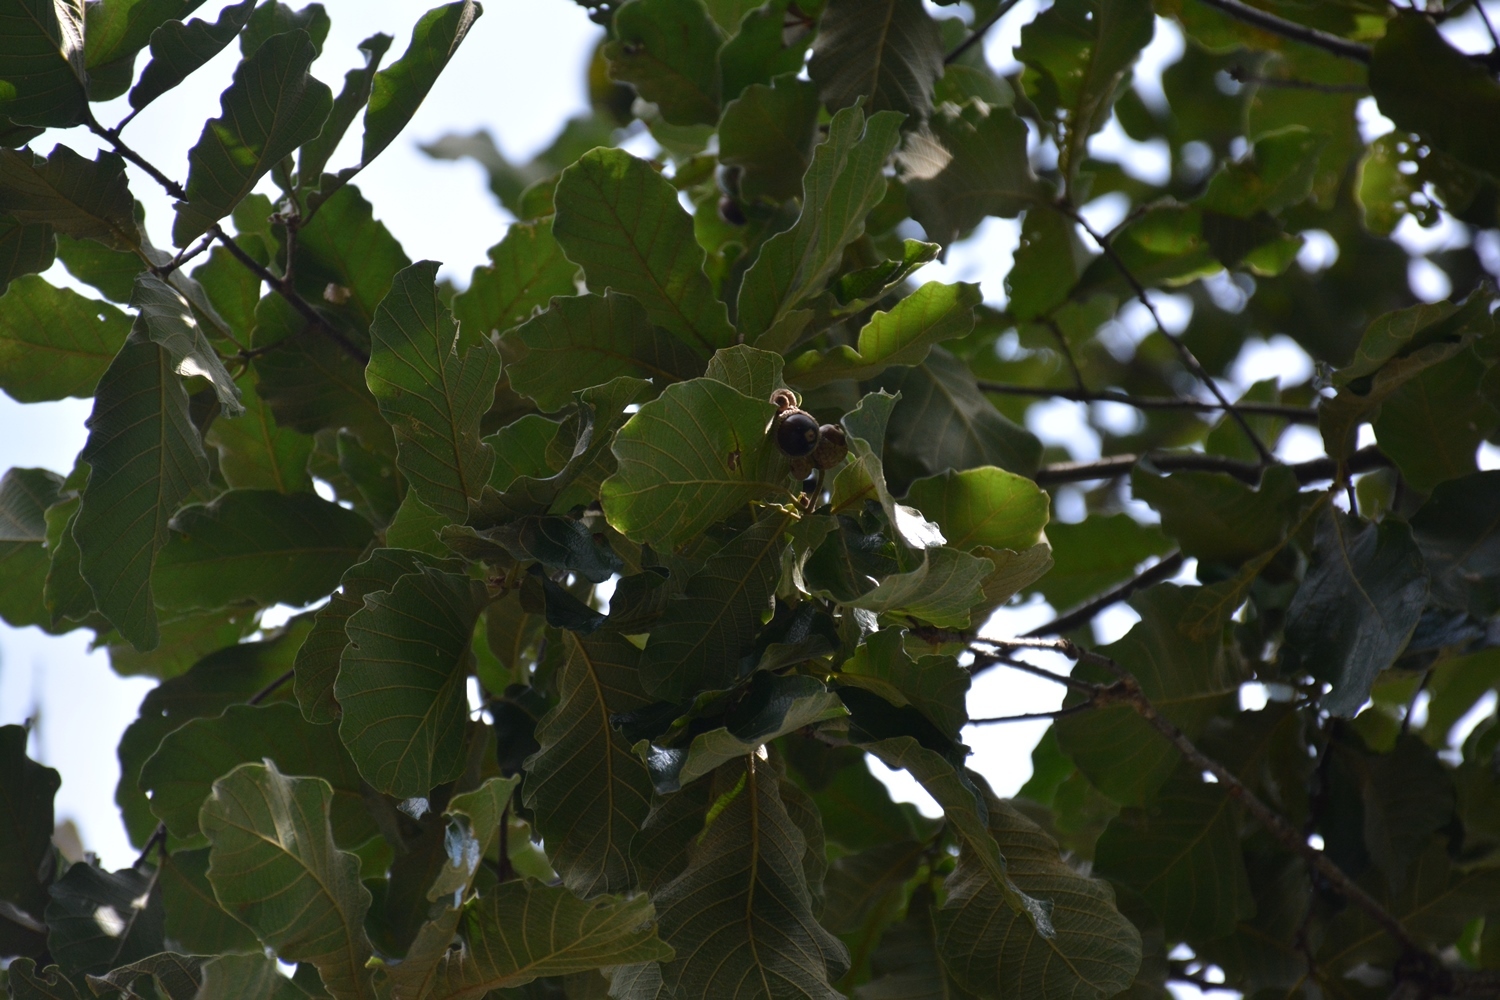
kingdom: Plantae
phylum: Tracheophyta
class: Magnoliopsida
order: Fagales
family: Fagaceae
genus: Quercus
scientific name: Quercus peduncularis
